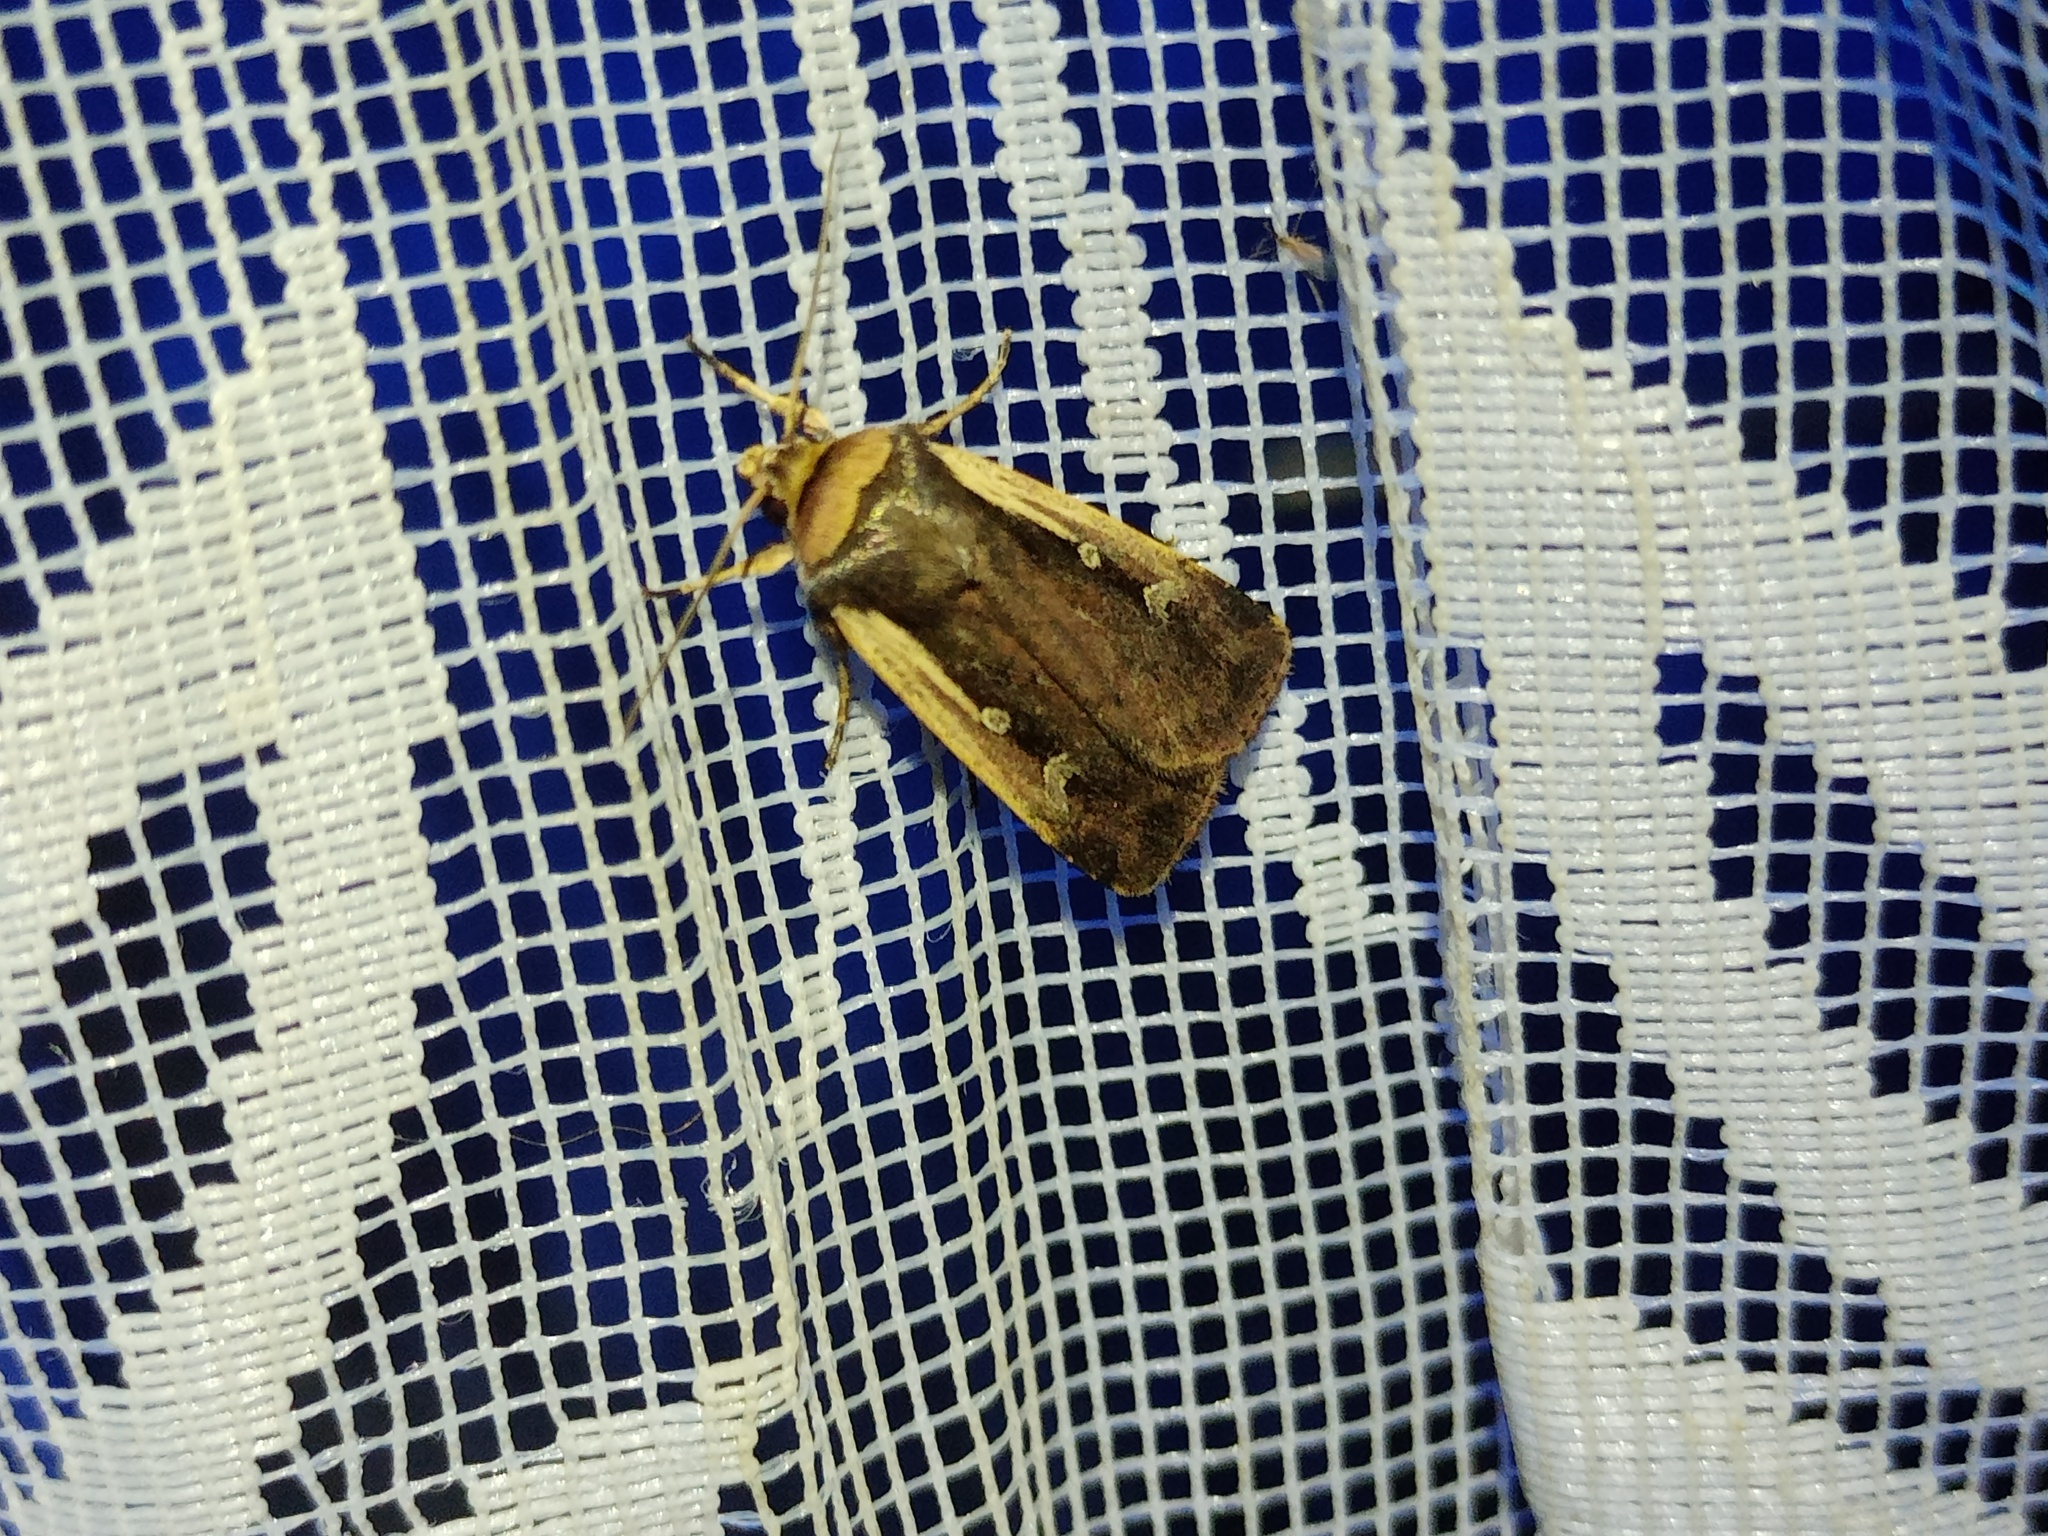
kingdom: Animalia
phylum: Arthropoda
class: Insecta
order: Lepidoptera
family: Noctuidae
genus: Ochropleura
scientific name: Ochropleura plecta
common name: Flame shoulder
